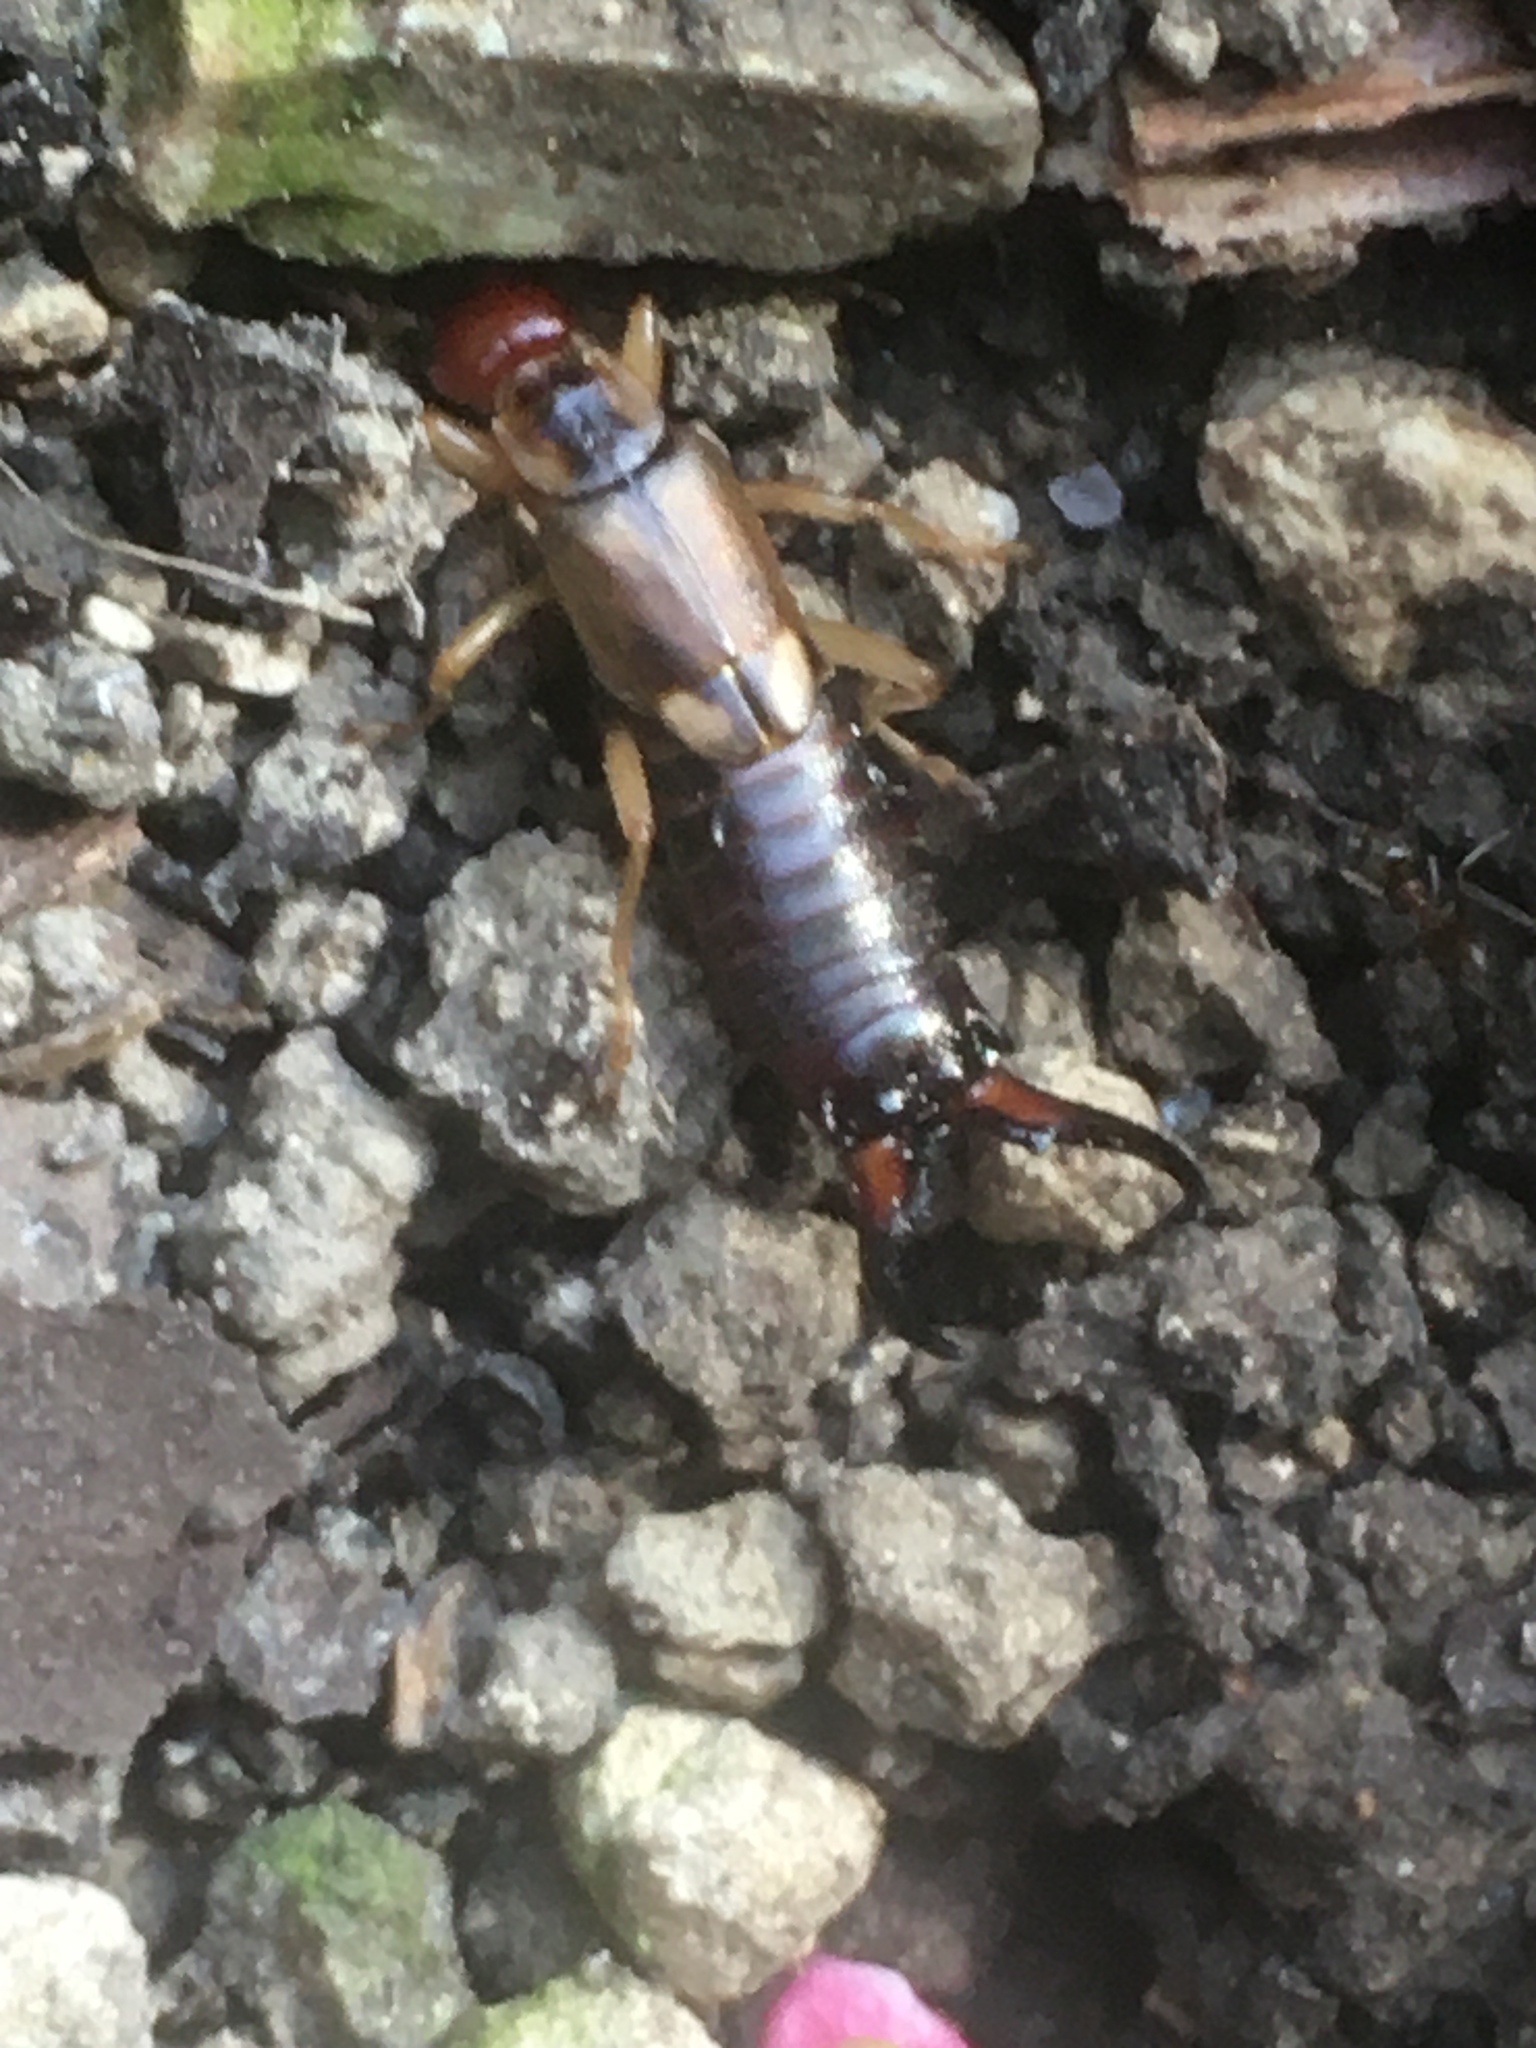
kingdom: Animalia
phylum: Arthropoda
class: Insecta
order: Dermaptera
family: Forficulidae
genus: Forficula
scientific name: Forficula
